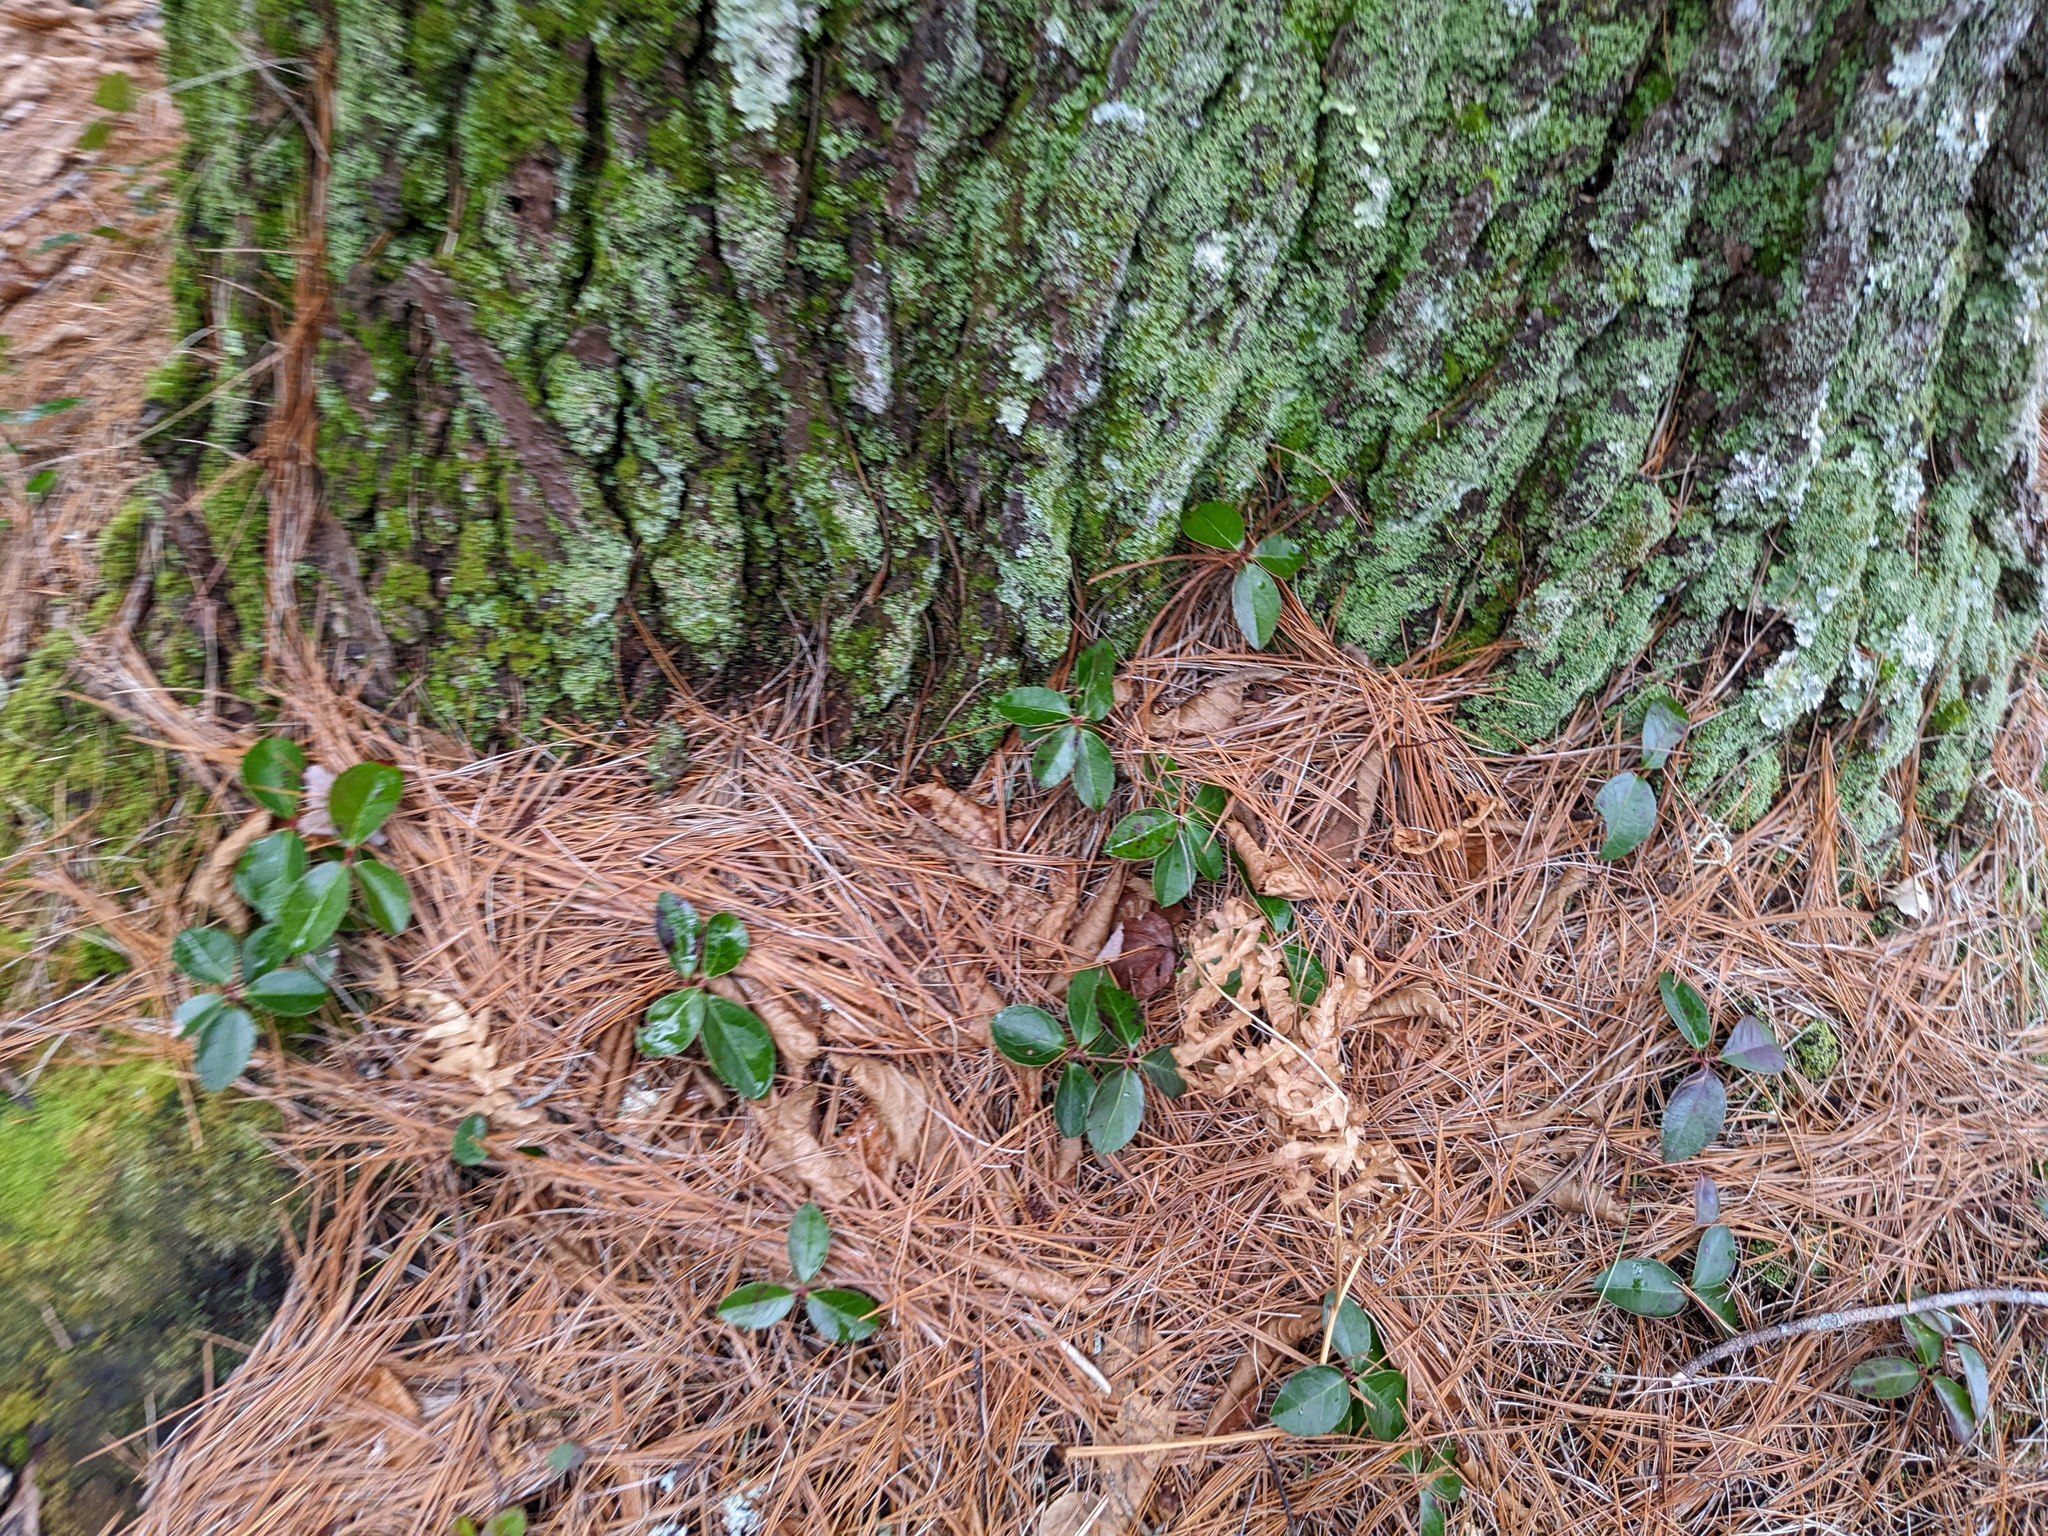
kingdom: Plantae
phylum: Tracheophyta
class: Magnoliopsida
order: Ericales
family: Ericaceae
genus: Gaultheria
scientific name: Gaultheria procumbens
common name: Checkerberry
